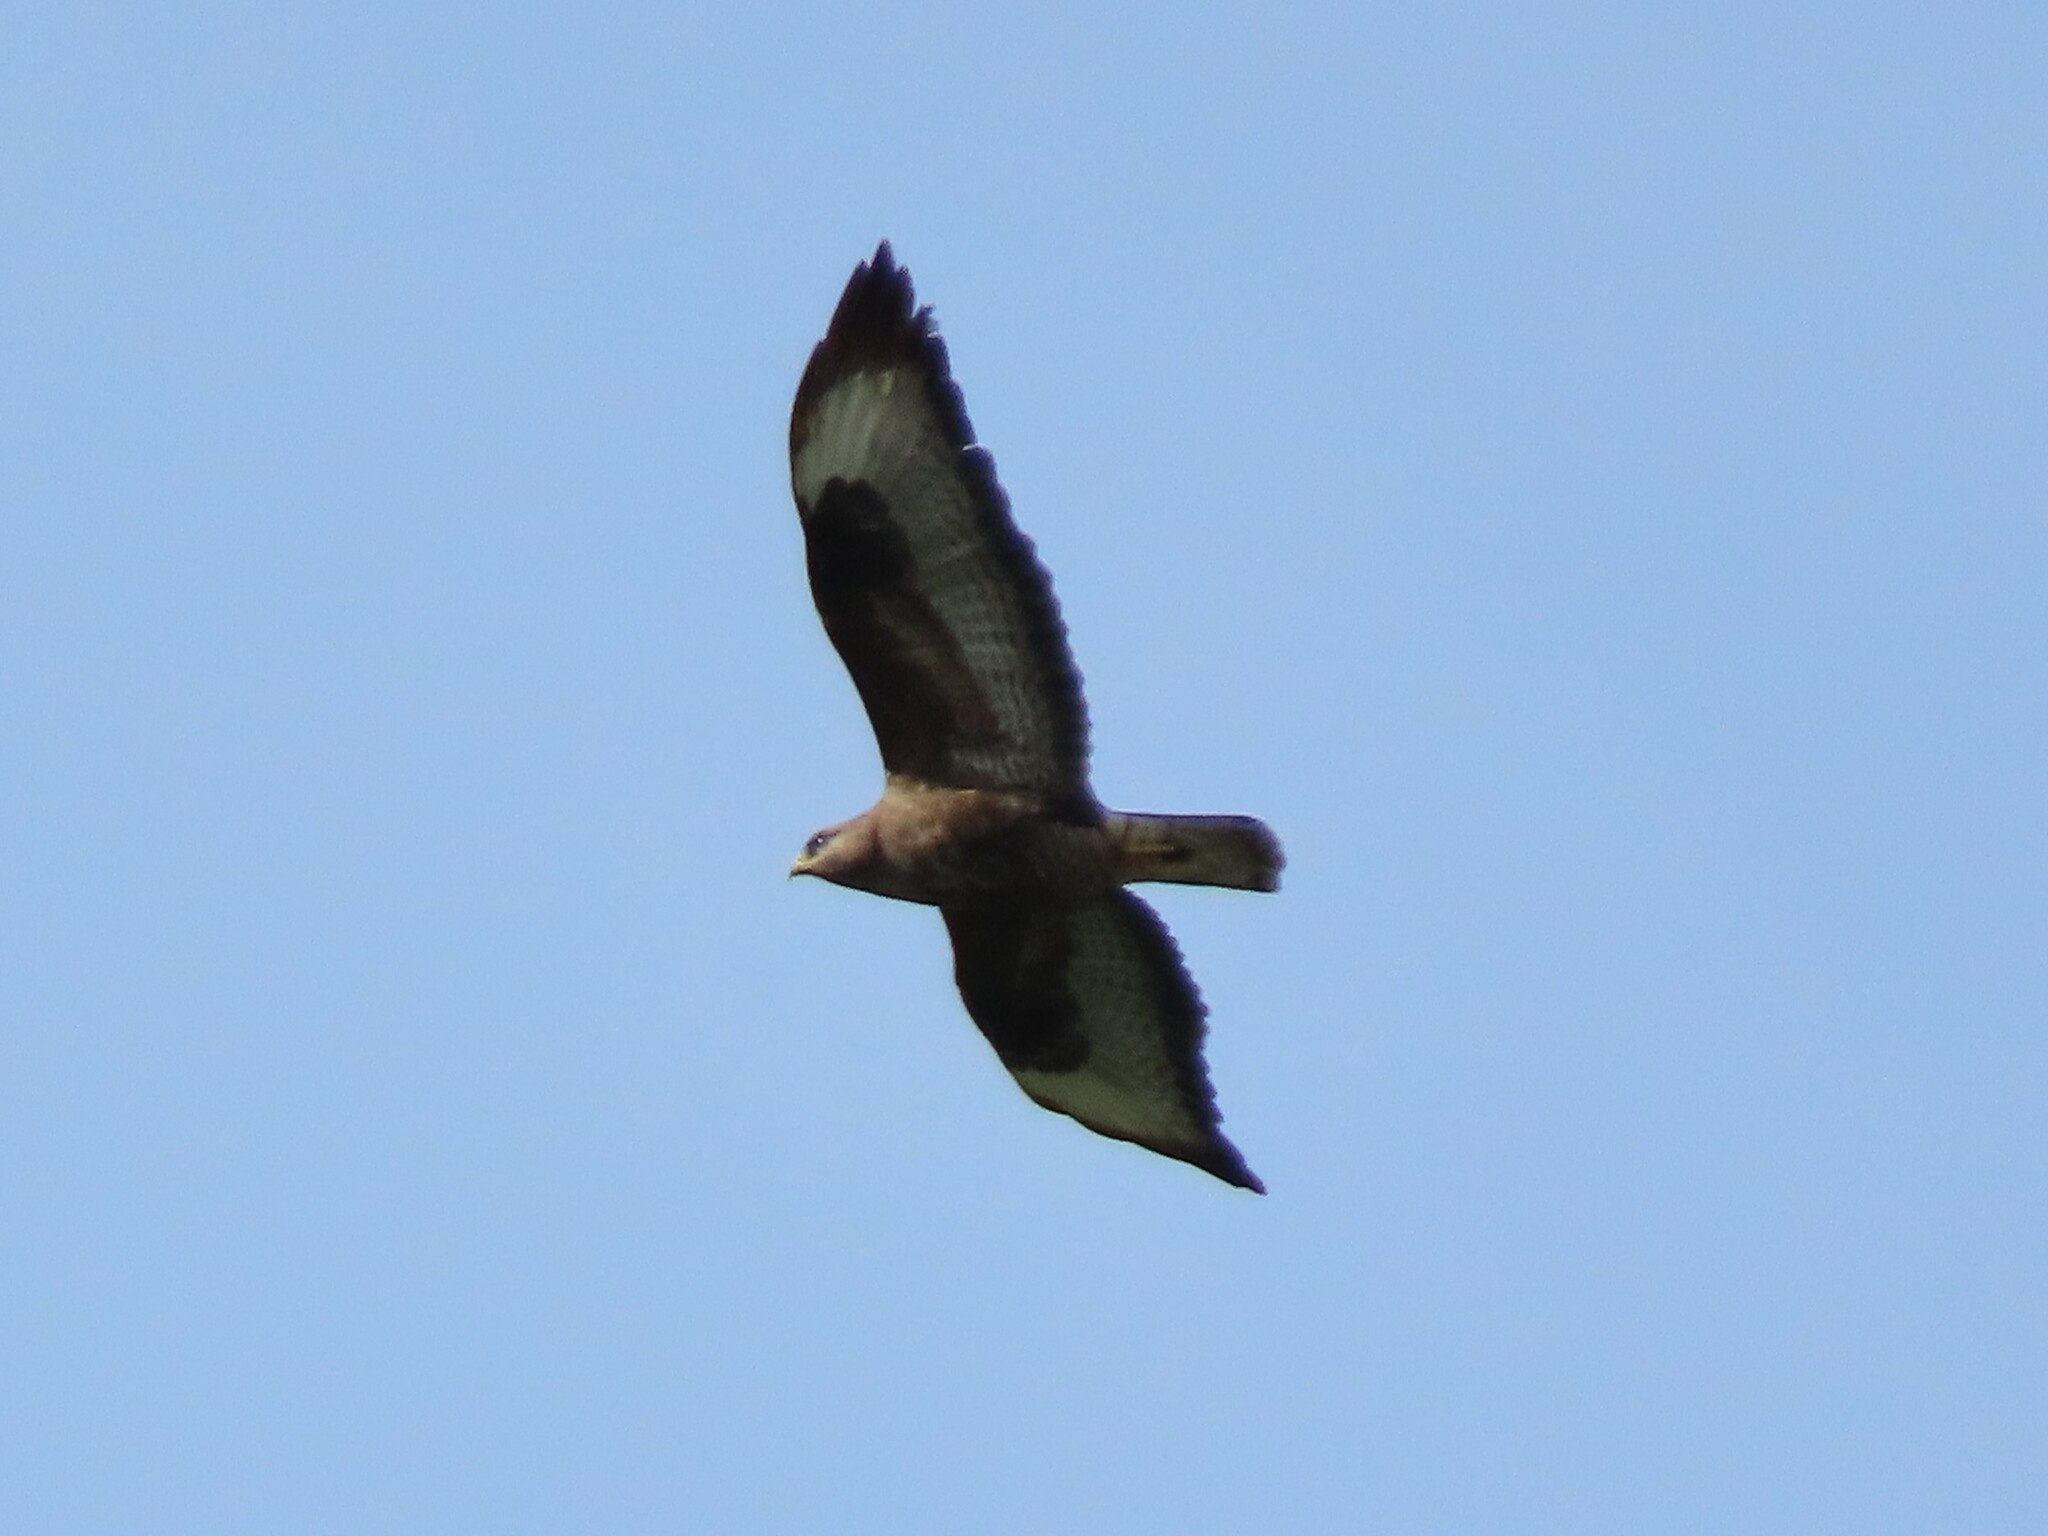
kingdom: Animalia
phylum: Chordata
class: Aves
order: Accipitriformes
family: Accipitridae
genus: Buteo
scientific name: Buteo buteo
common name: Common buzzard
